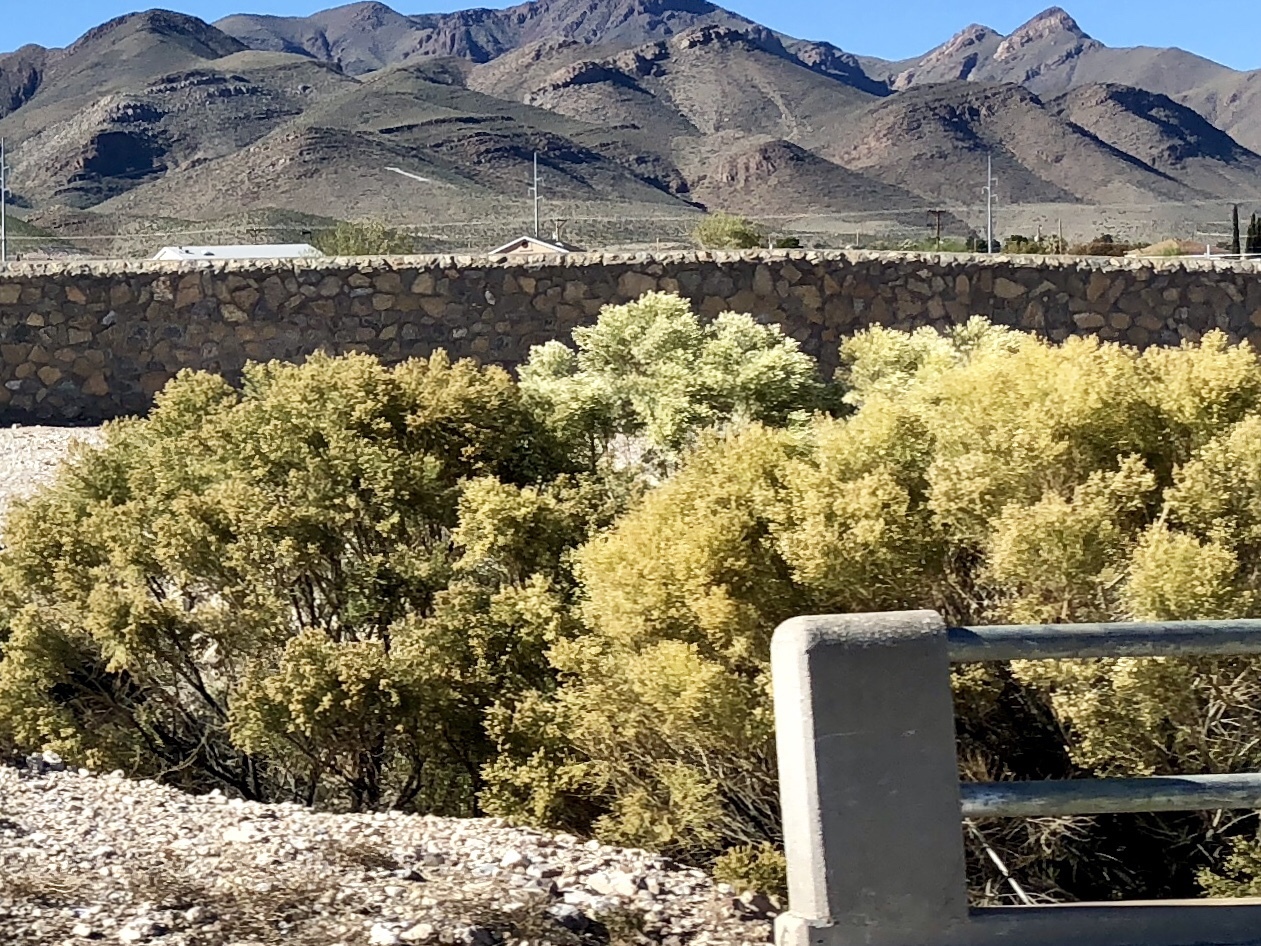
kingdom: Plantae
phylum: Tracheophyta
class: Magnoliopsida
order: Asterales
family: Asteraceae
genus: Baccharis
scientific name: Baccharis sarothroides
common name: Desert-broom
